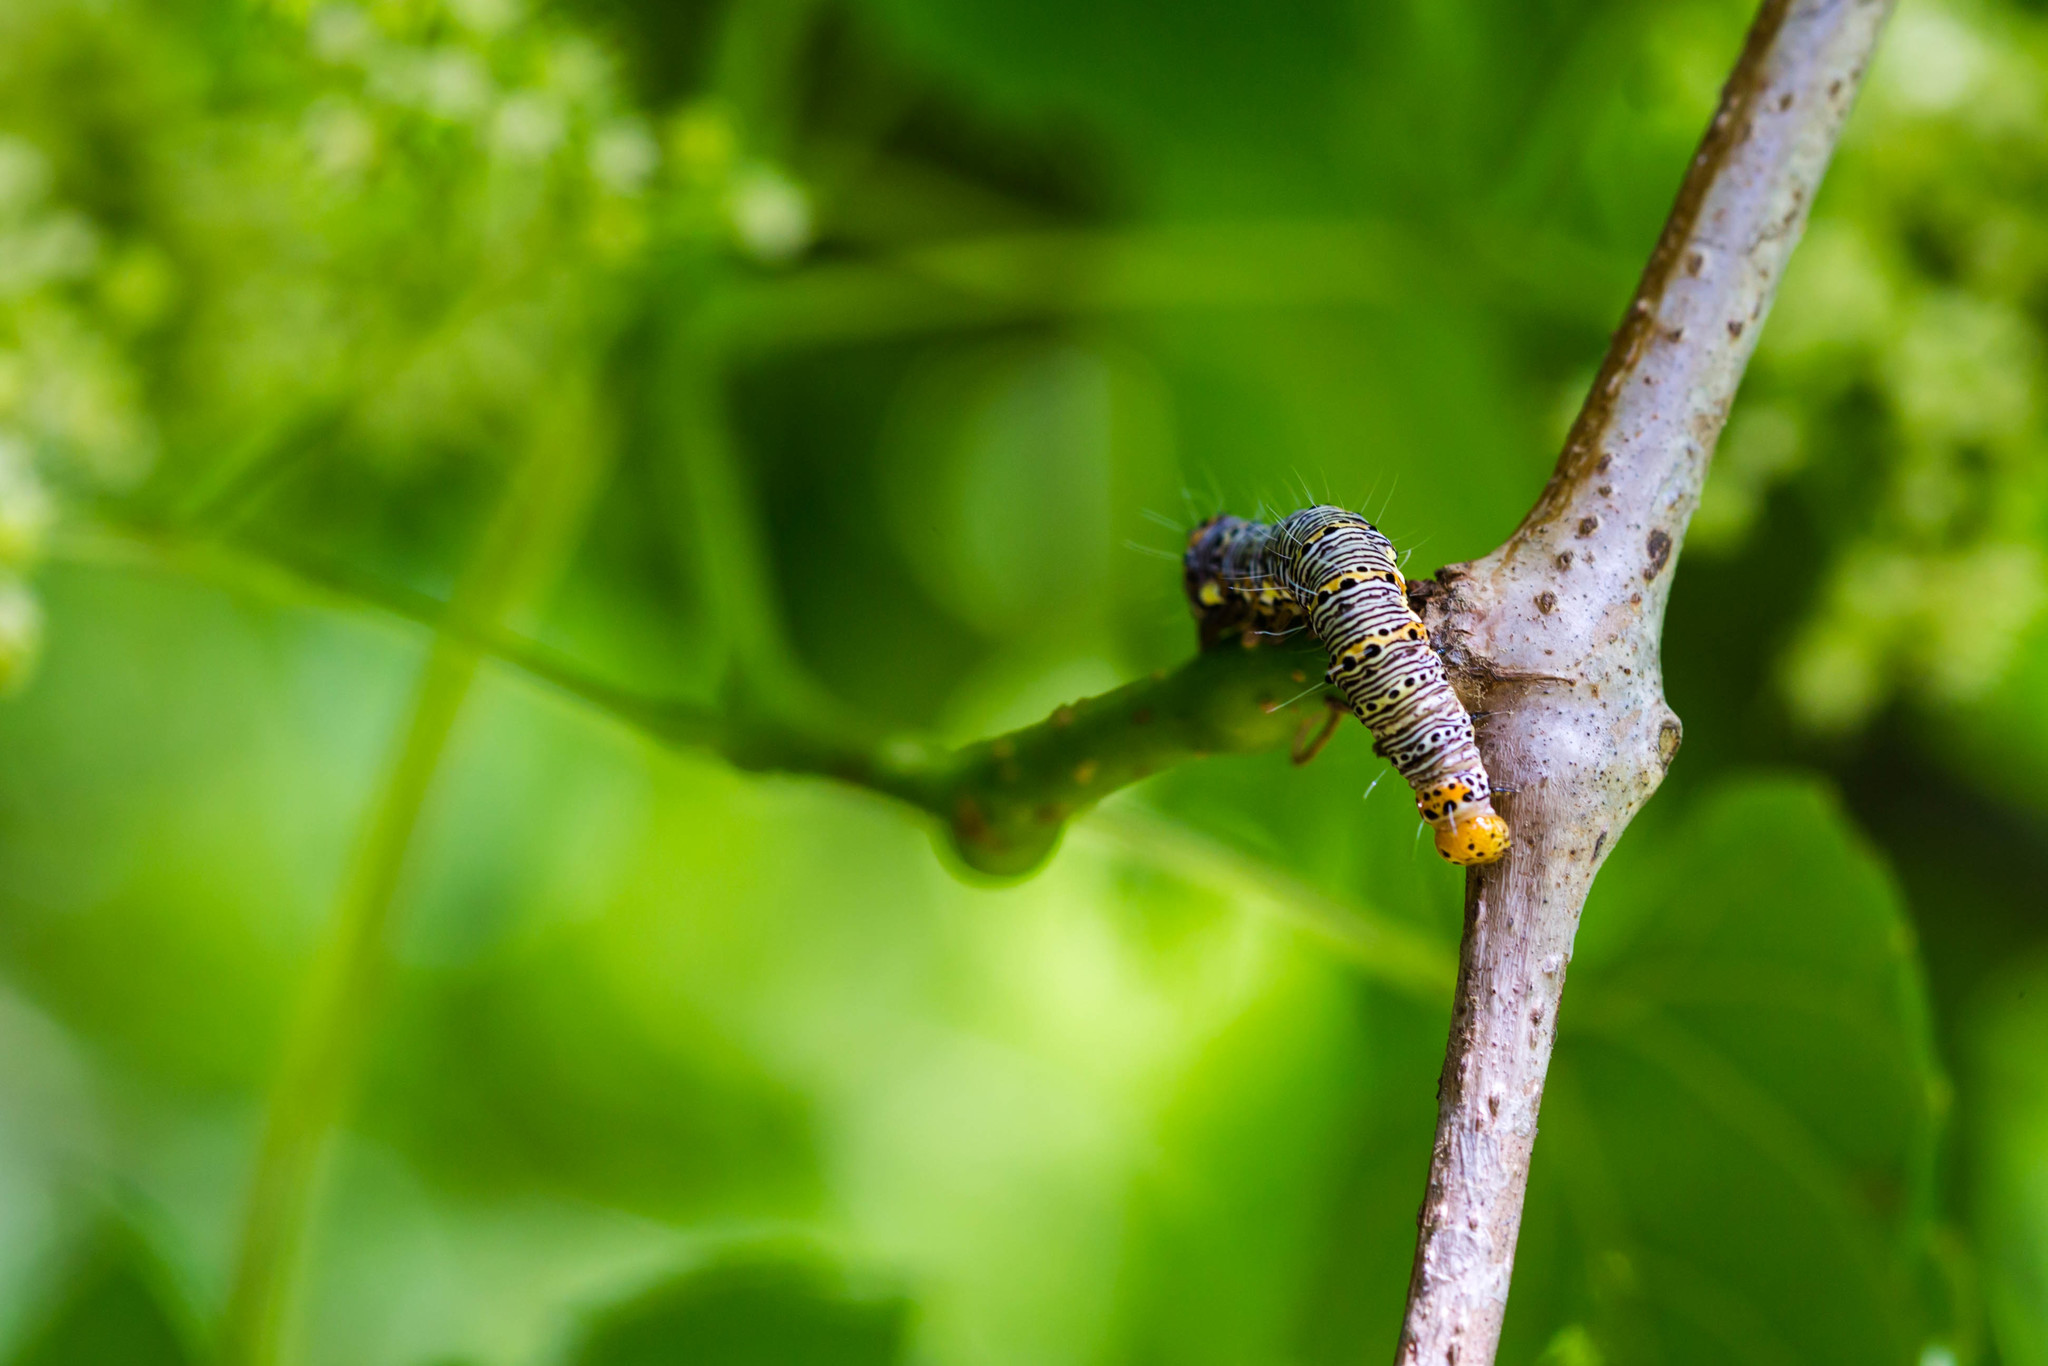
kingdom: Animalia
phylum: Arthropoda
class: Insecta
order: Lepidoptera
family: Noctuidae
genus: Alypia
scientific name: Alypia octomaculata
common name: Eight-spotted forester
